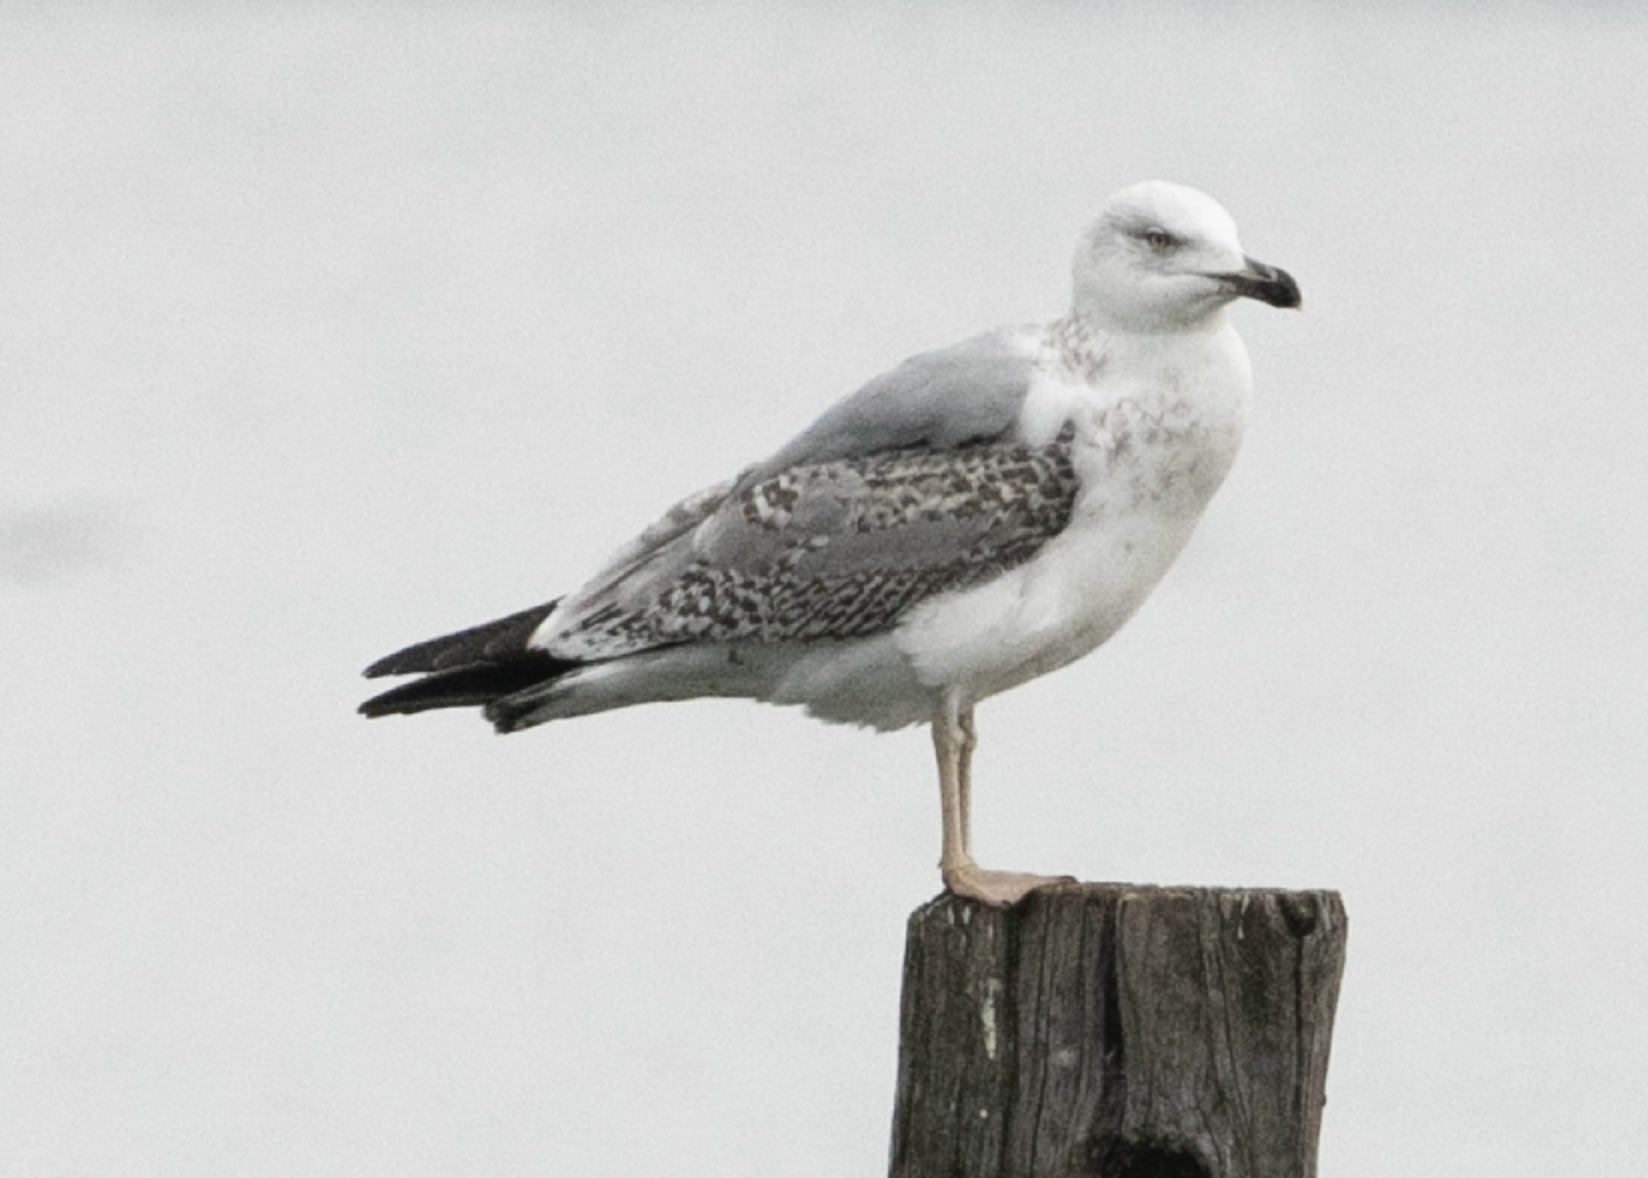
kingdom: Animalia
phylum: Chordata
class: Aves
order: Charadriiformes
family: Laridae
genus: Larus
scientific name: Larus michahellis
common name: Yellow-legged gull
